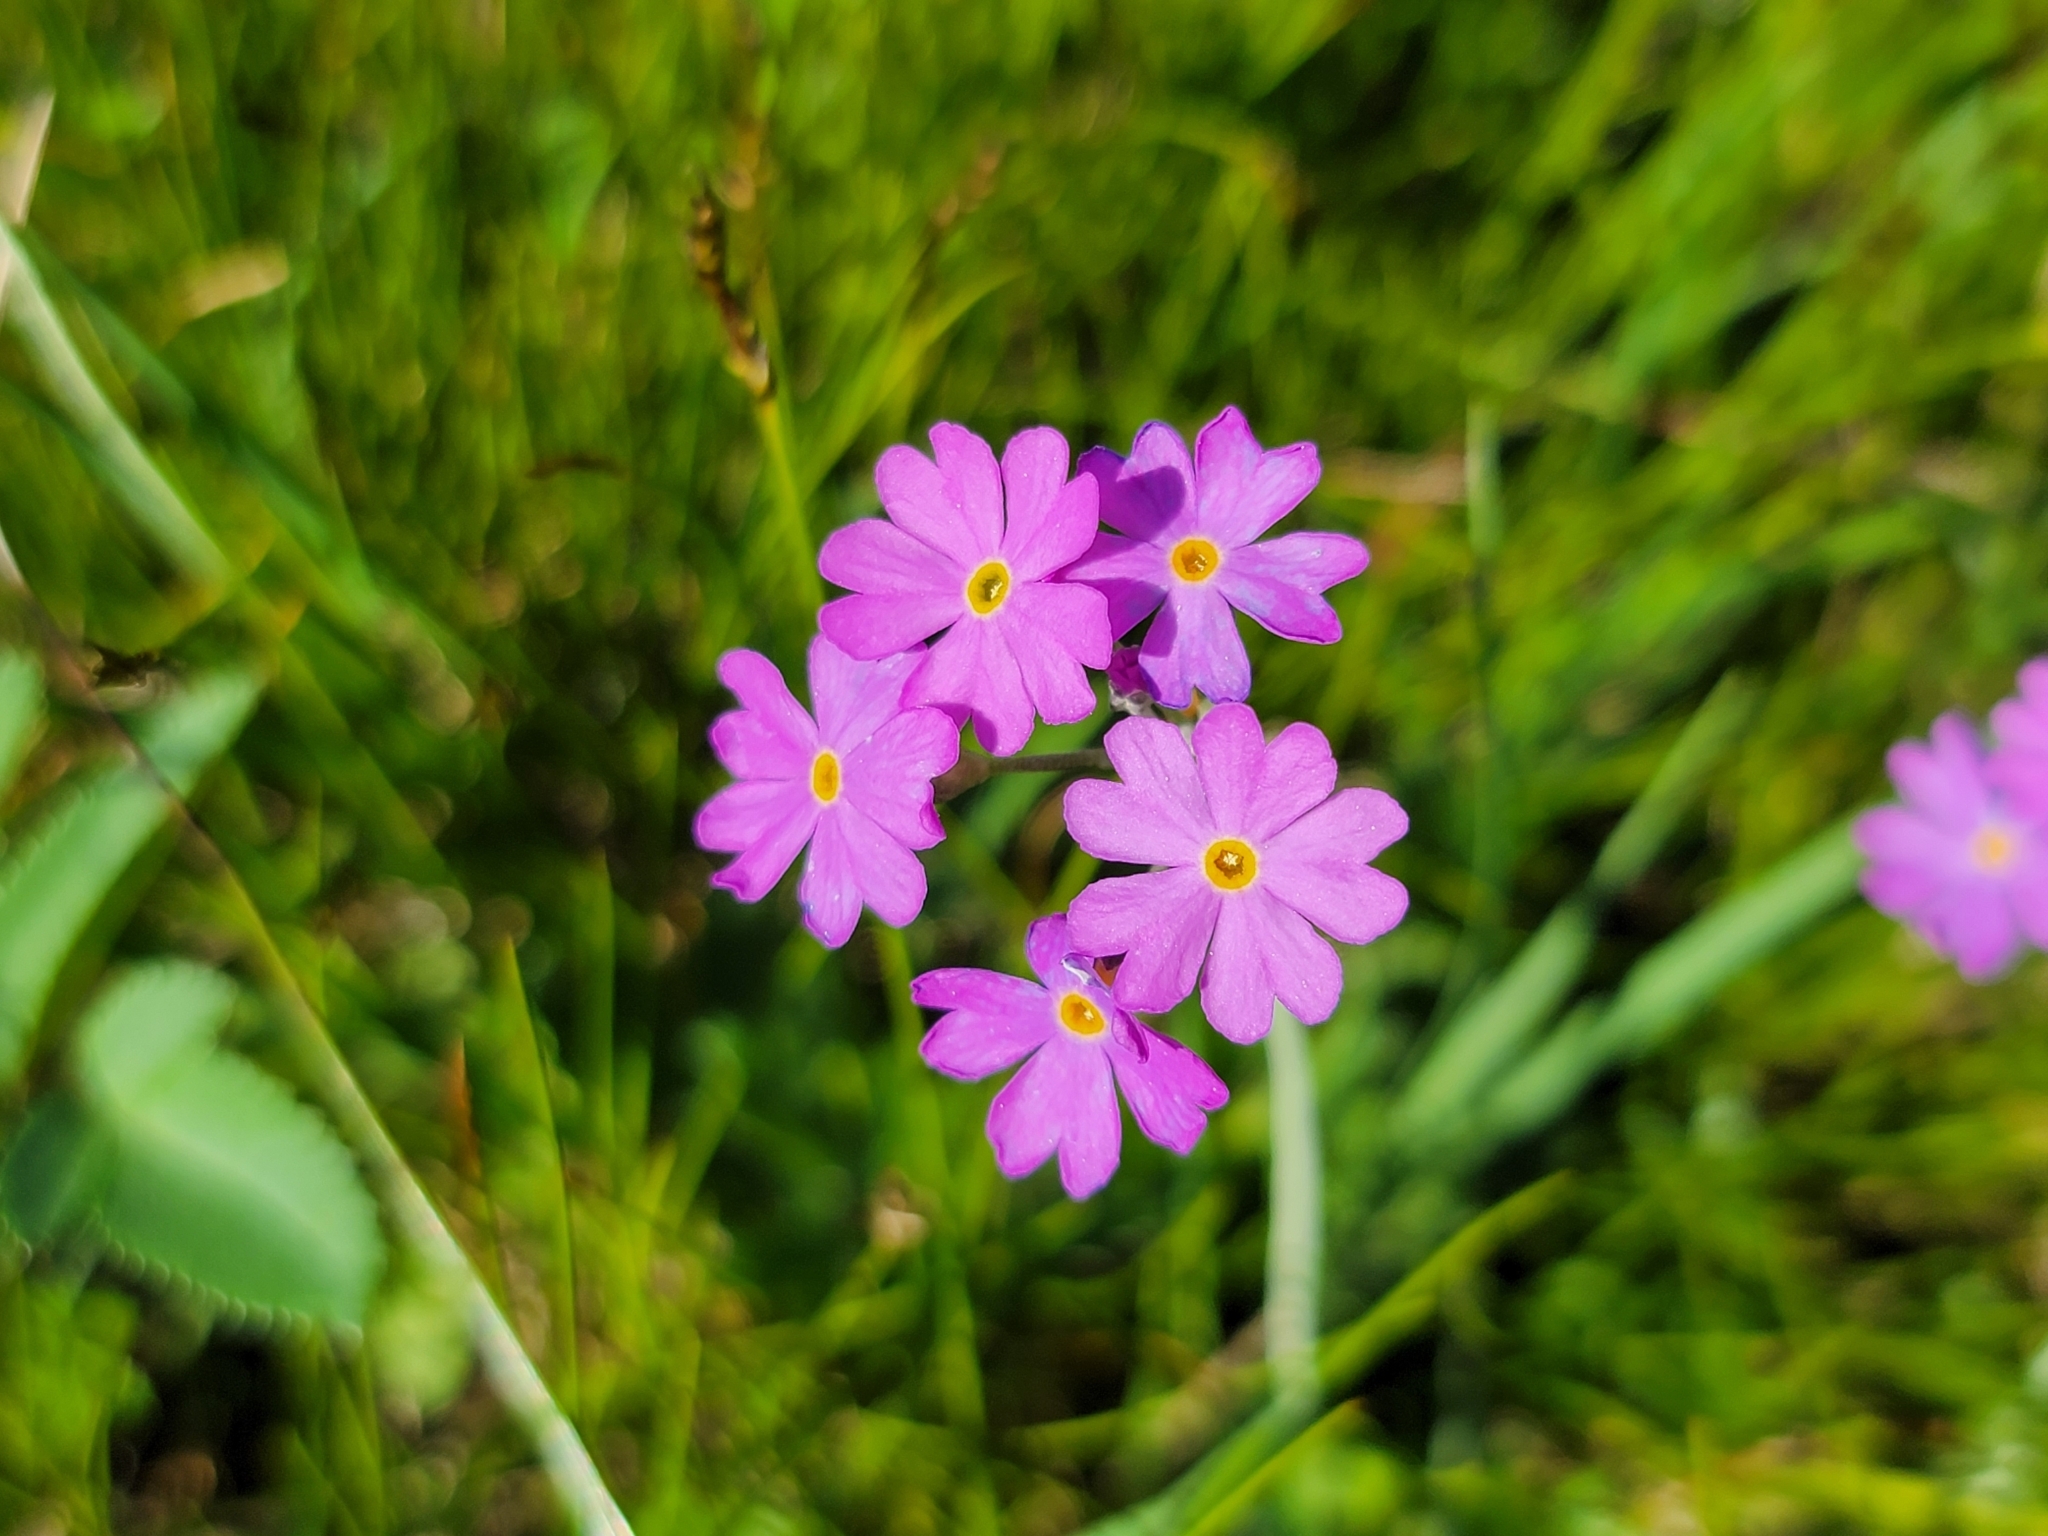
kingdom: Plantae
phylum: Tracheophyta
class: Magnoliopsida
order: Ericales
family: Primulaceae
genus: Primula
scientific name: Primula farinosa
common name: Bird's-eye primrose
